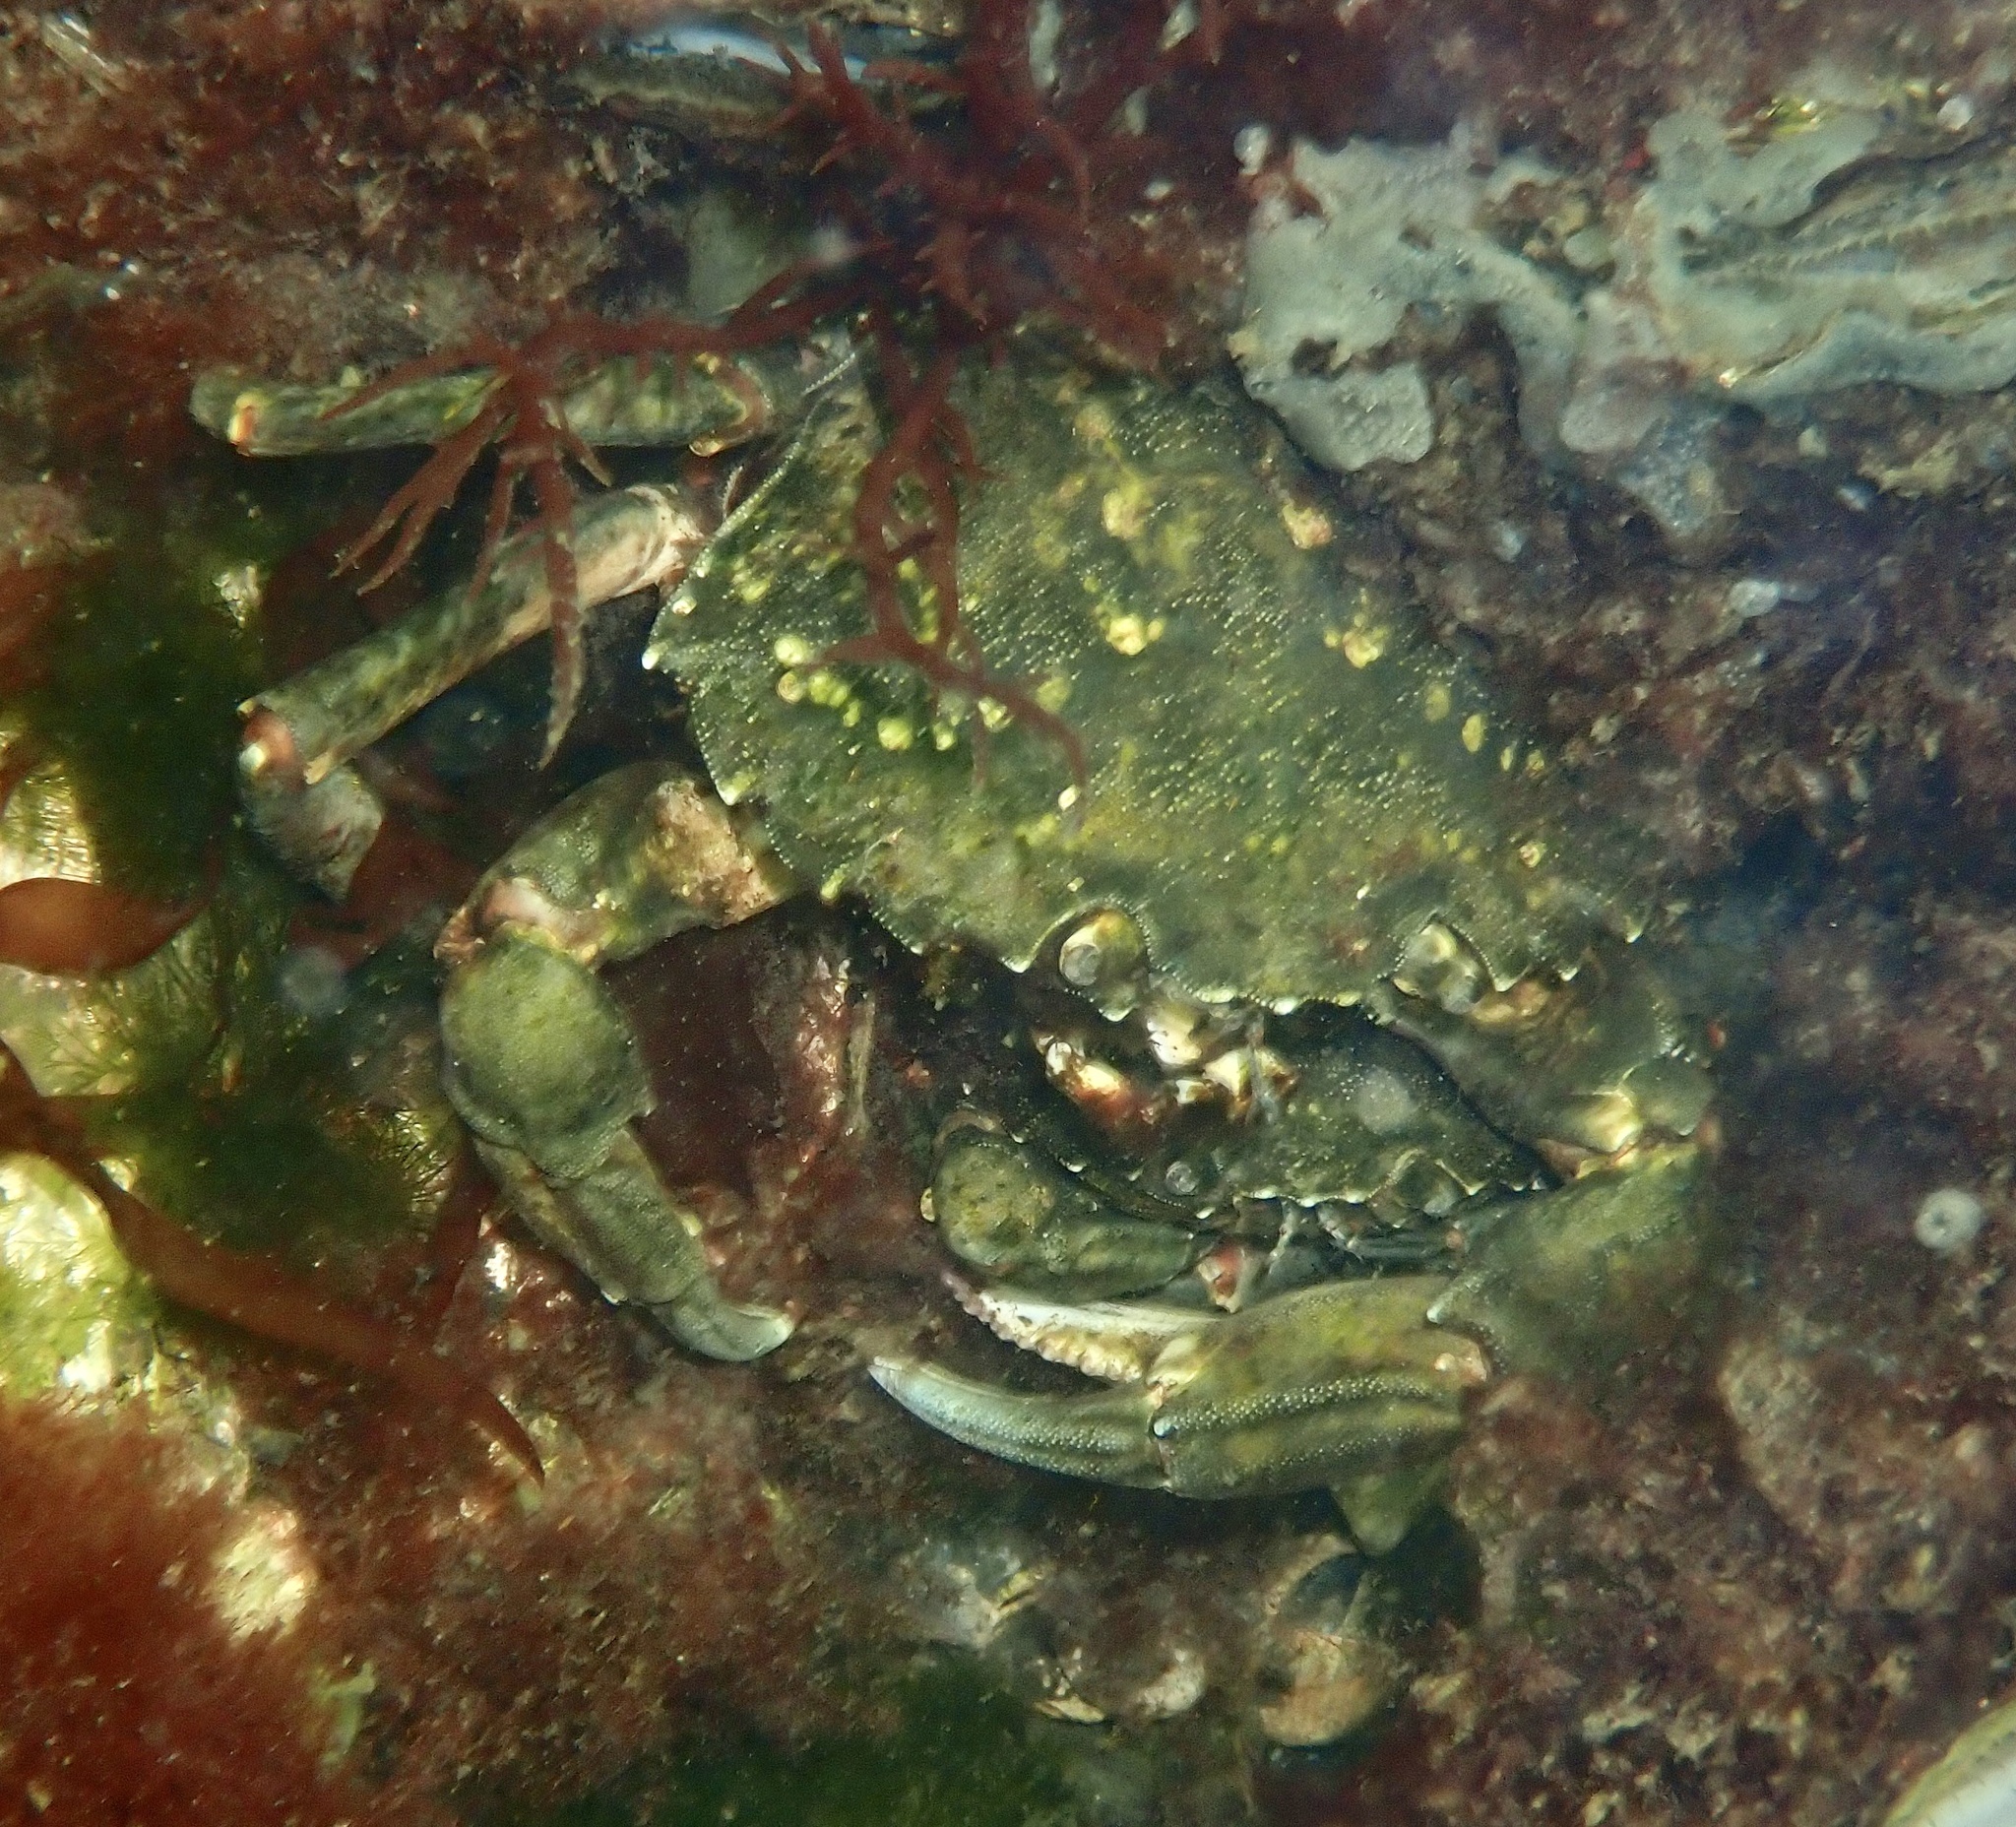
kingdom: Animalia
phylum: Arthropoda
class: Malacostraca
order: Decapoda
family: Carcinidae
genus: Carcinus
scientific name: Carcinus maenas
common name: European green crab
